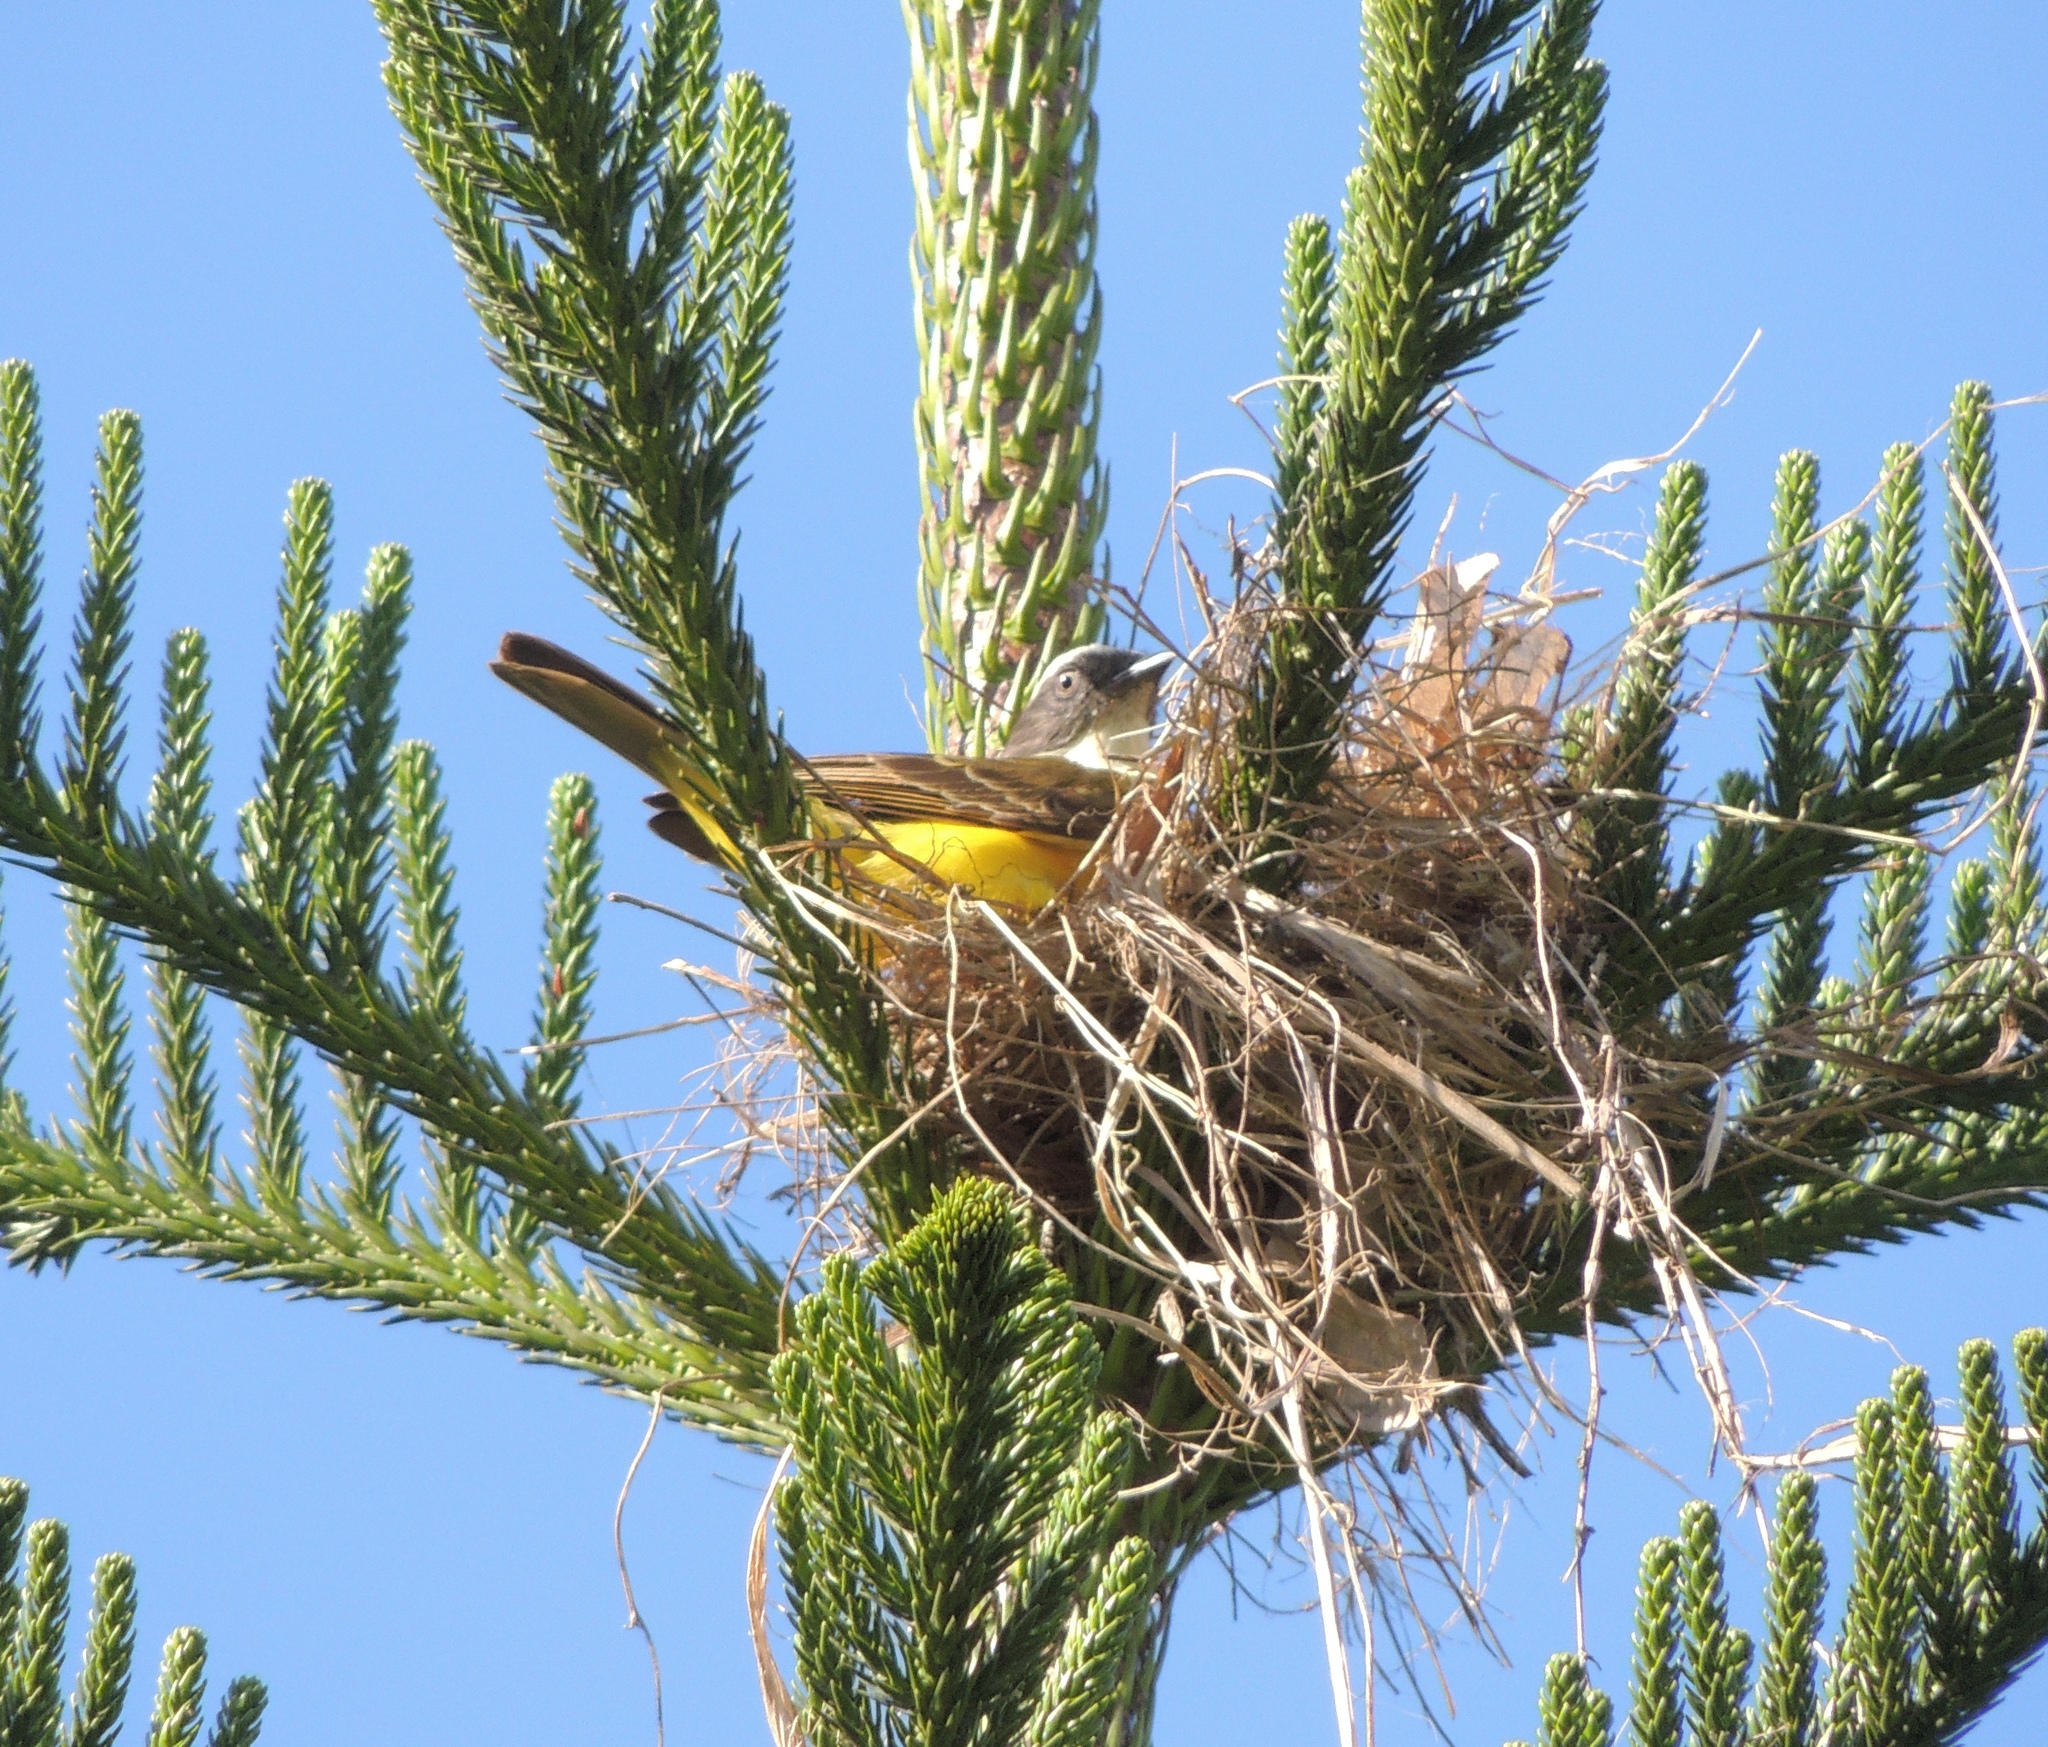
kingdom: Animalia
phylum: Chordata
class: Aves
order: Passeriformes
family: Tyrannidae
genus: Myiozetetes
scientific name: Myiozetetes similis
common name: Social flycatcher
